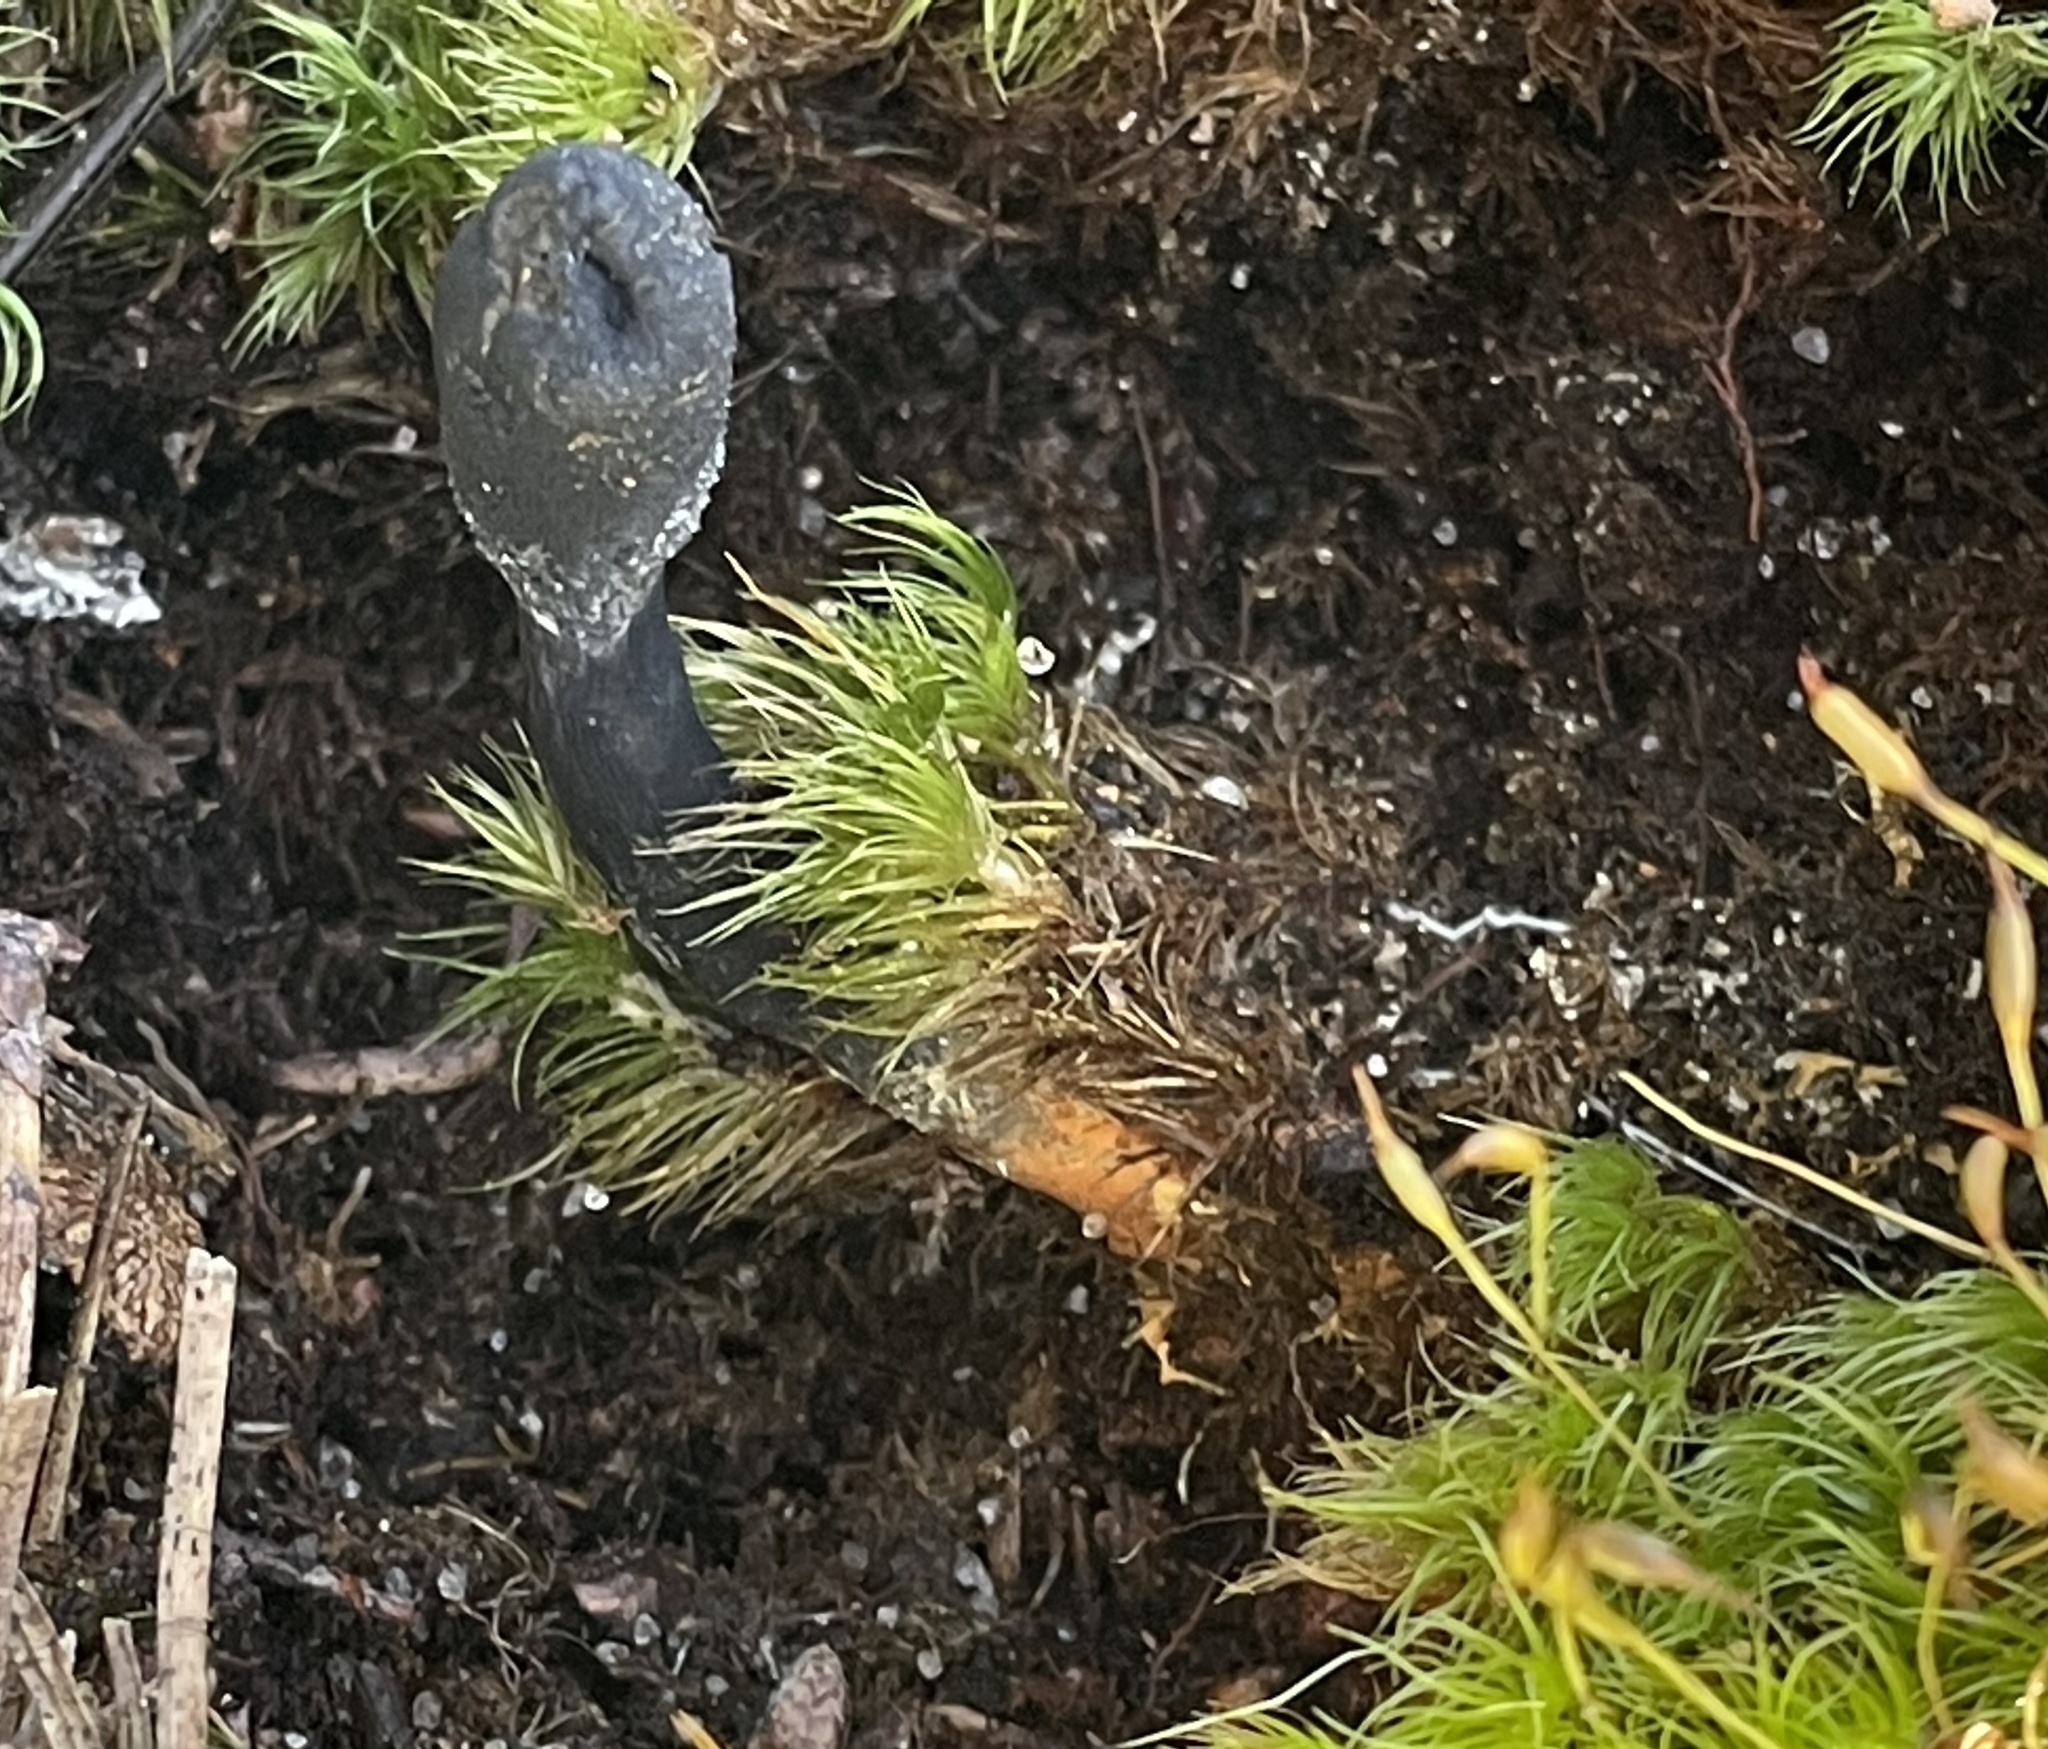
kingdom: Fungi
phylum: Ascomycota
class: Sordariomycetes
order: Hypocreales
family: Ophiocordycipitaceae
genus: Tolypocladium
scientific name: Tolypocladium ophioglossoides
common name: Snaketongue truffleclub
